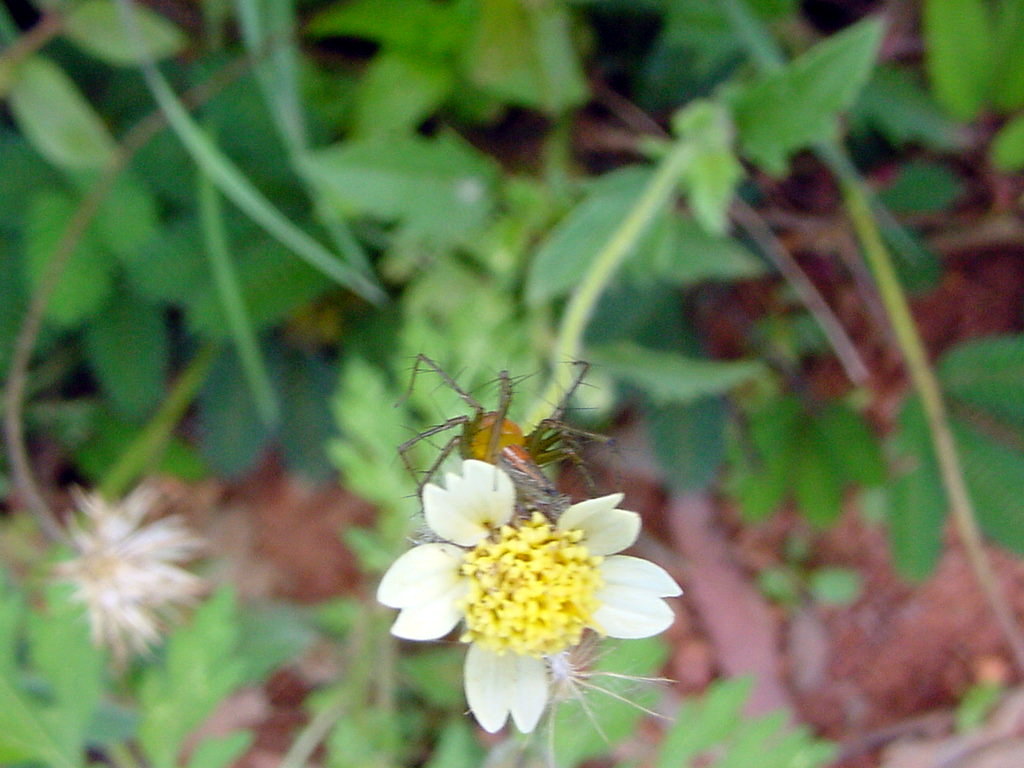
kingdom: Plantae
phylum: Tracheophyta
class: Magnoliopsida
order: Asterales
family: Asteraceae
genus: Tridax
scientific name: Tridax procumbens
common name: Coatbuttons
